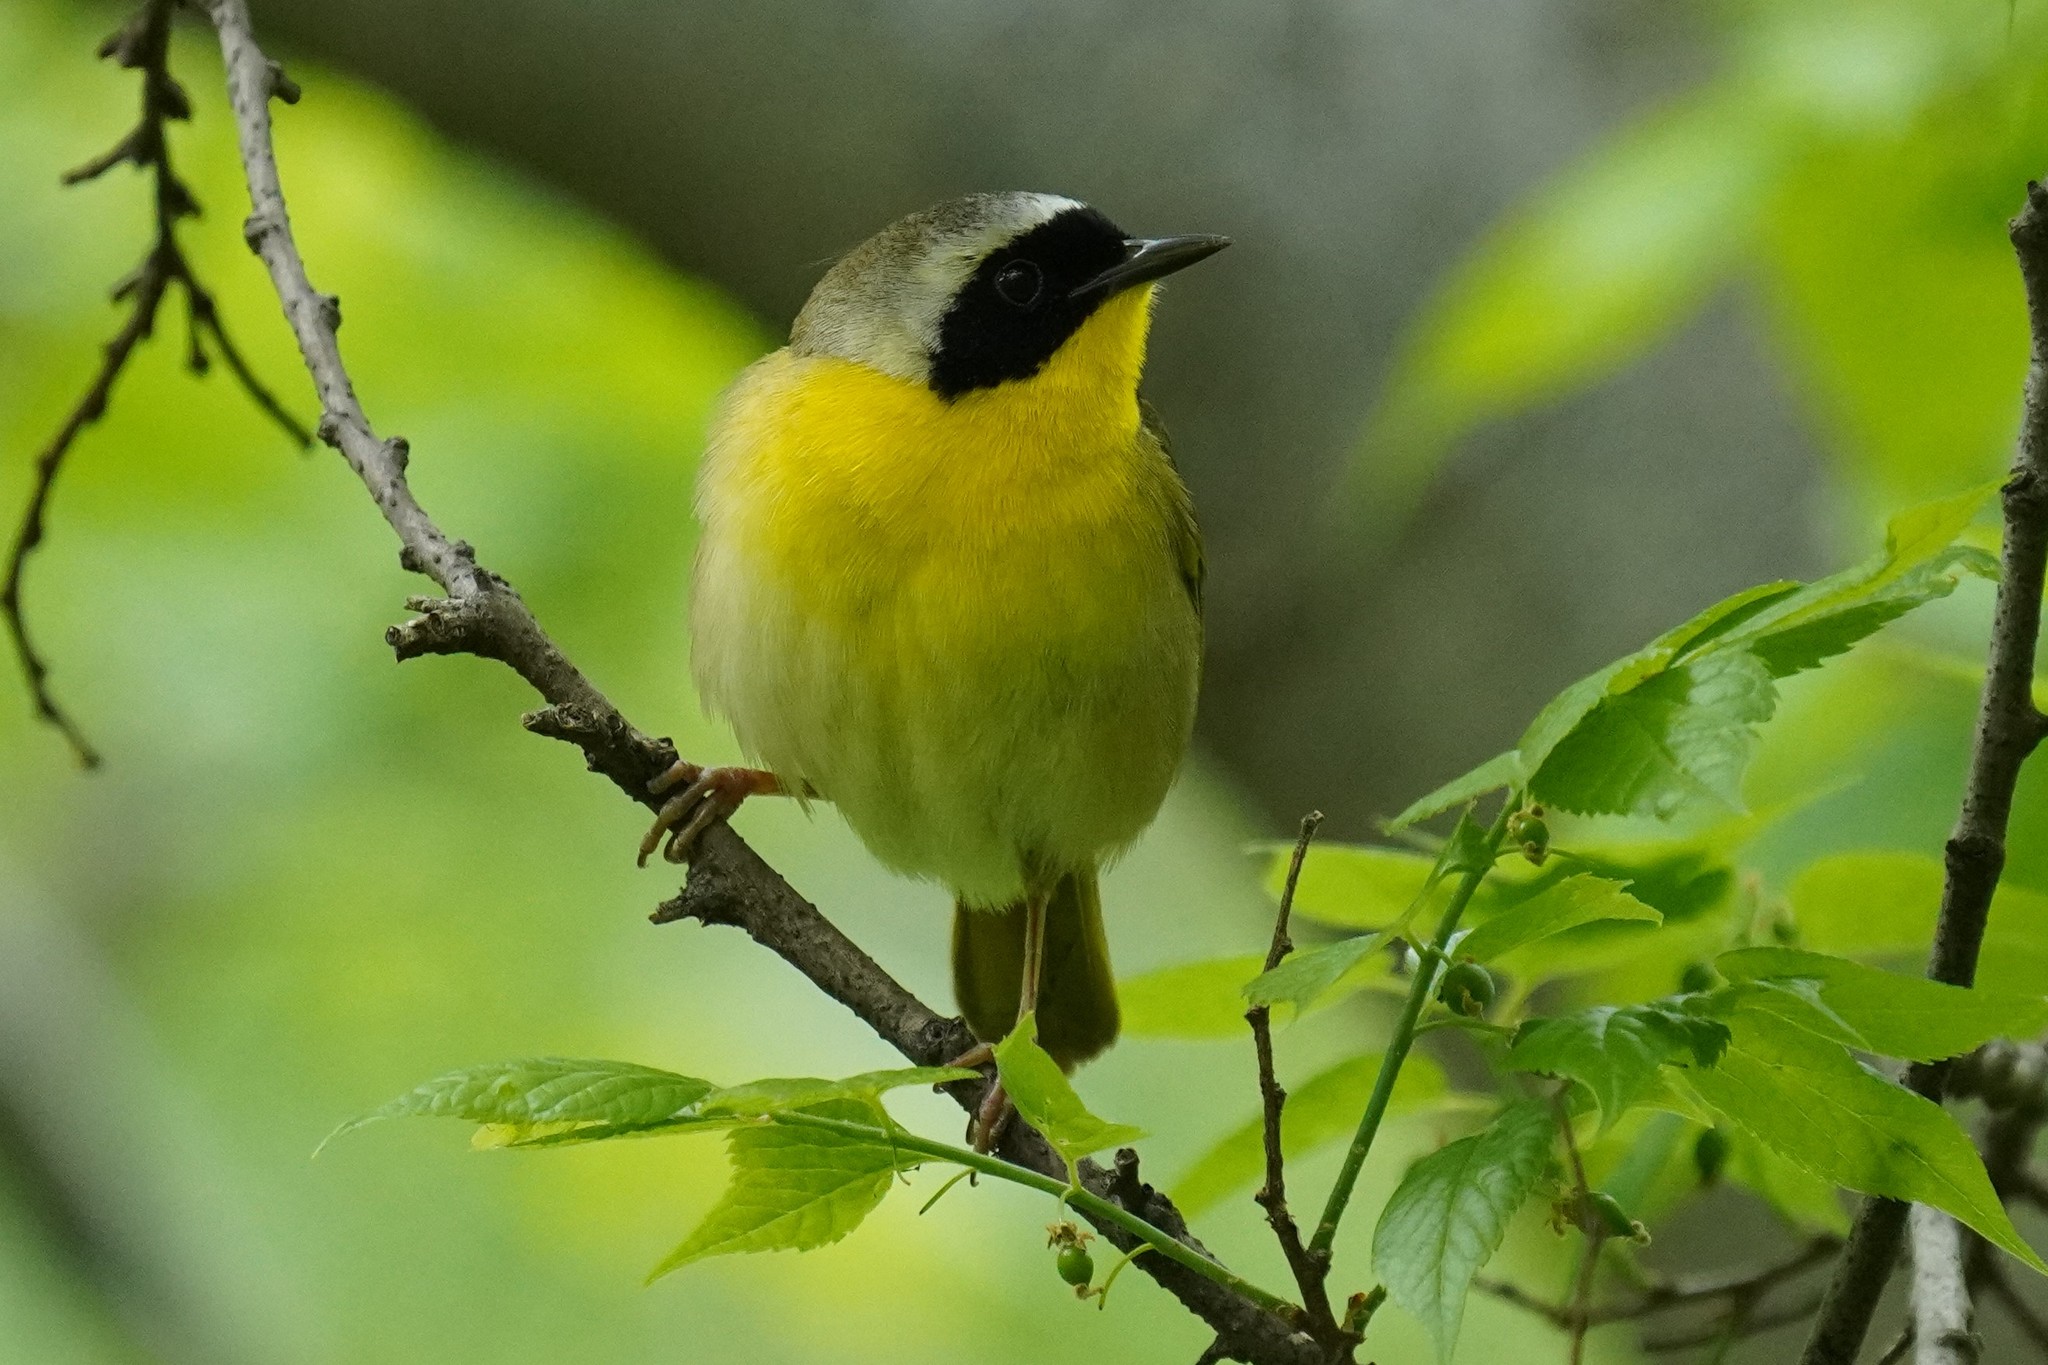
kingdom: Animalia
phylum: Chordata
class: Aves
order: Passeriformes
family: Parulidae
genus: Geothlypis
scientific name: Geothlypis trichas
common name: Common yellowthroat
